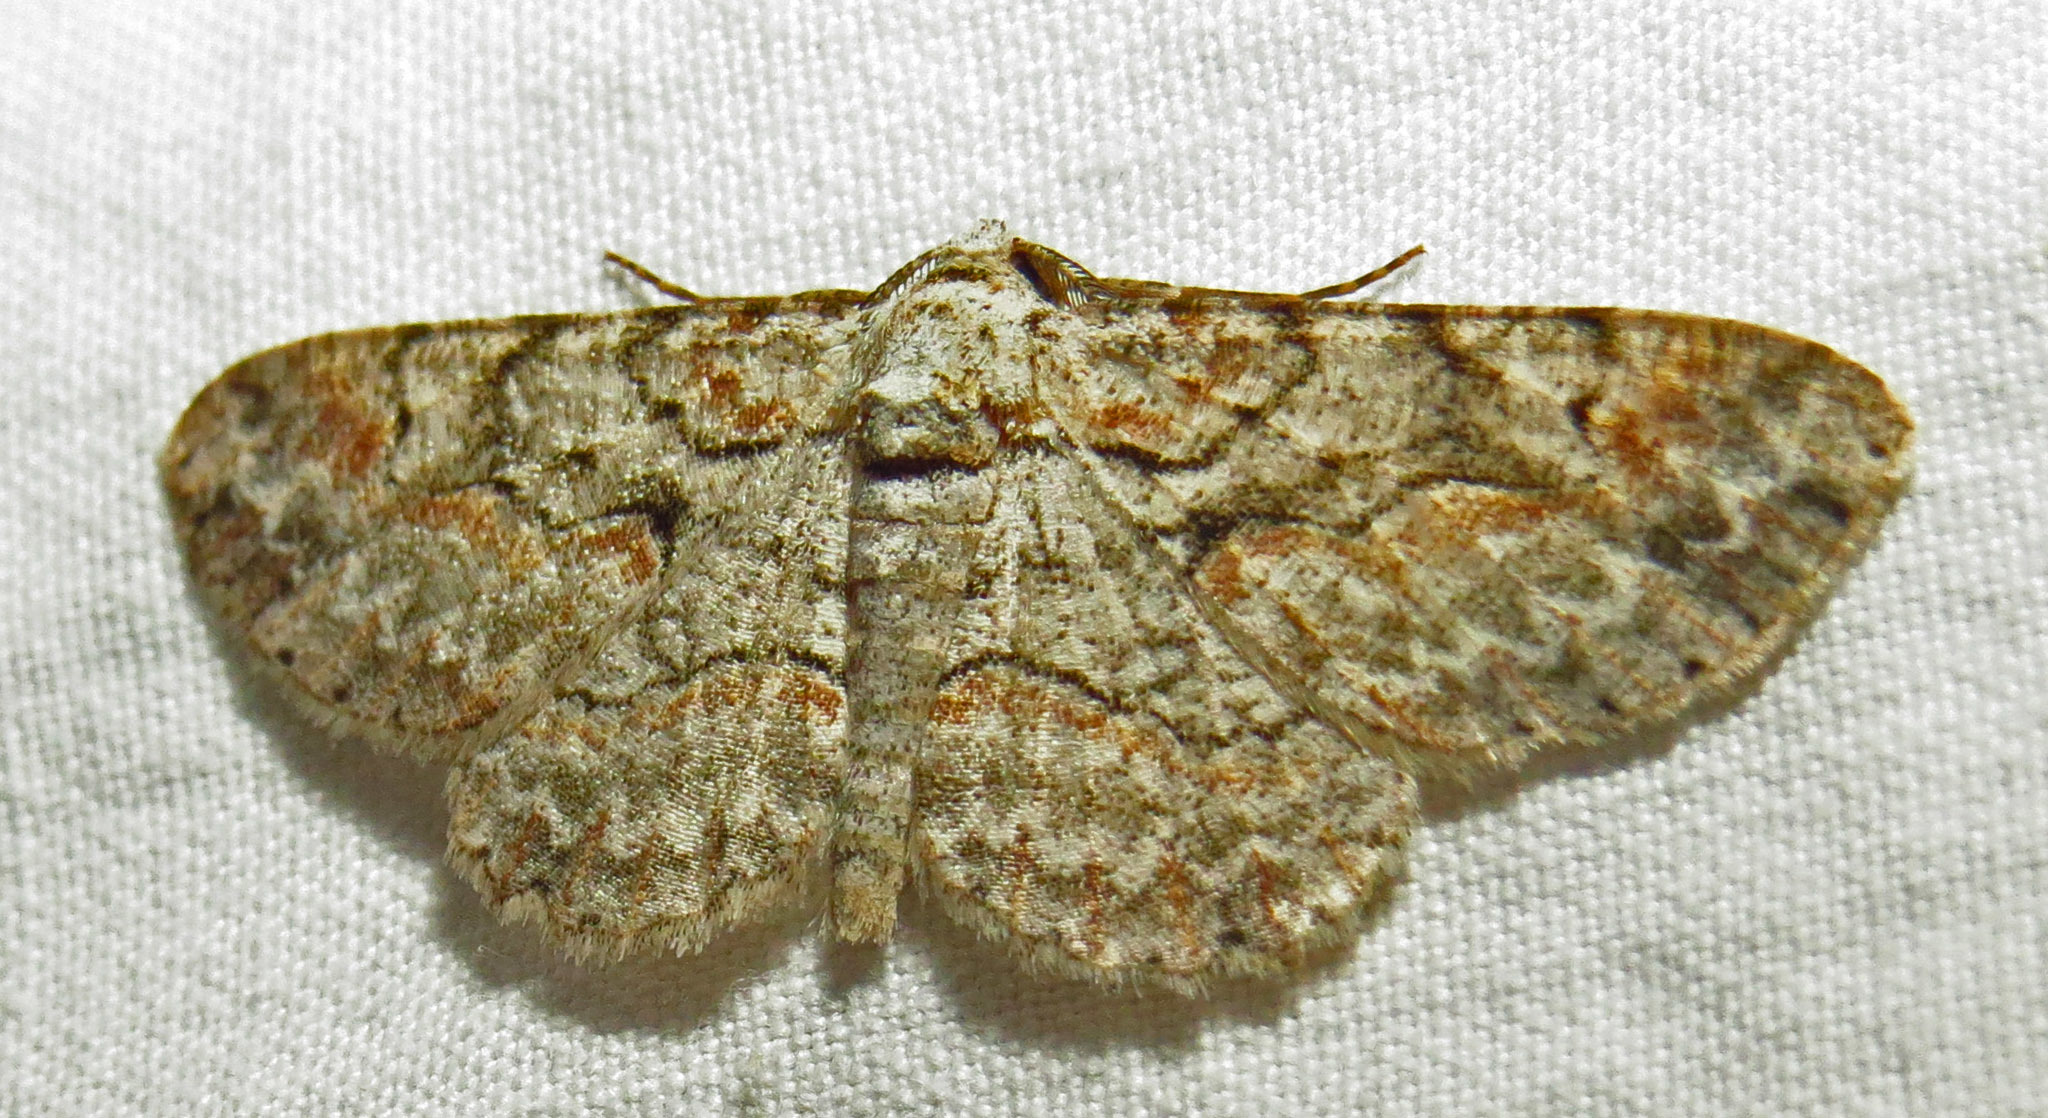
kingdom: Animalia
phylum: Arthropoda
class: Insecta
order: Lepidoptera
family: Geometridae
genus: Iridopsis
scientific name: Iridopsis defectaria
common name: Brown-shaded gray
